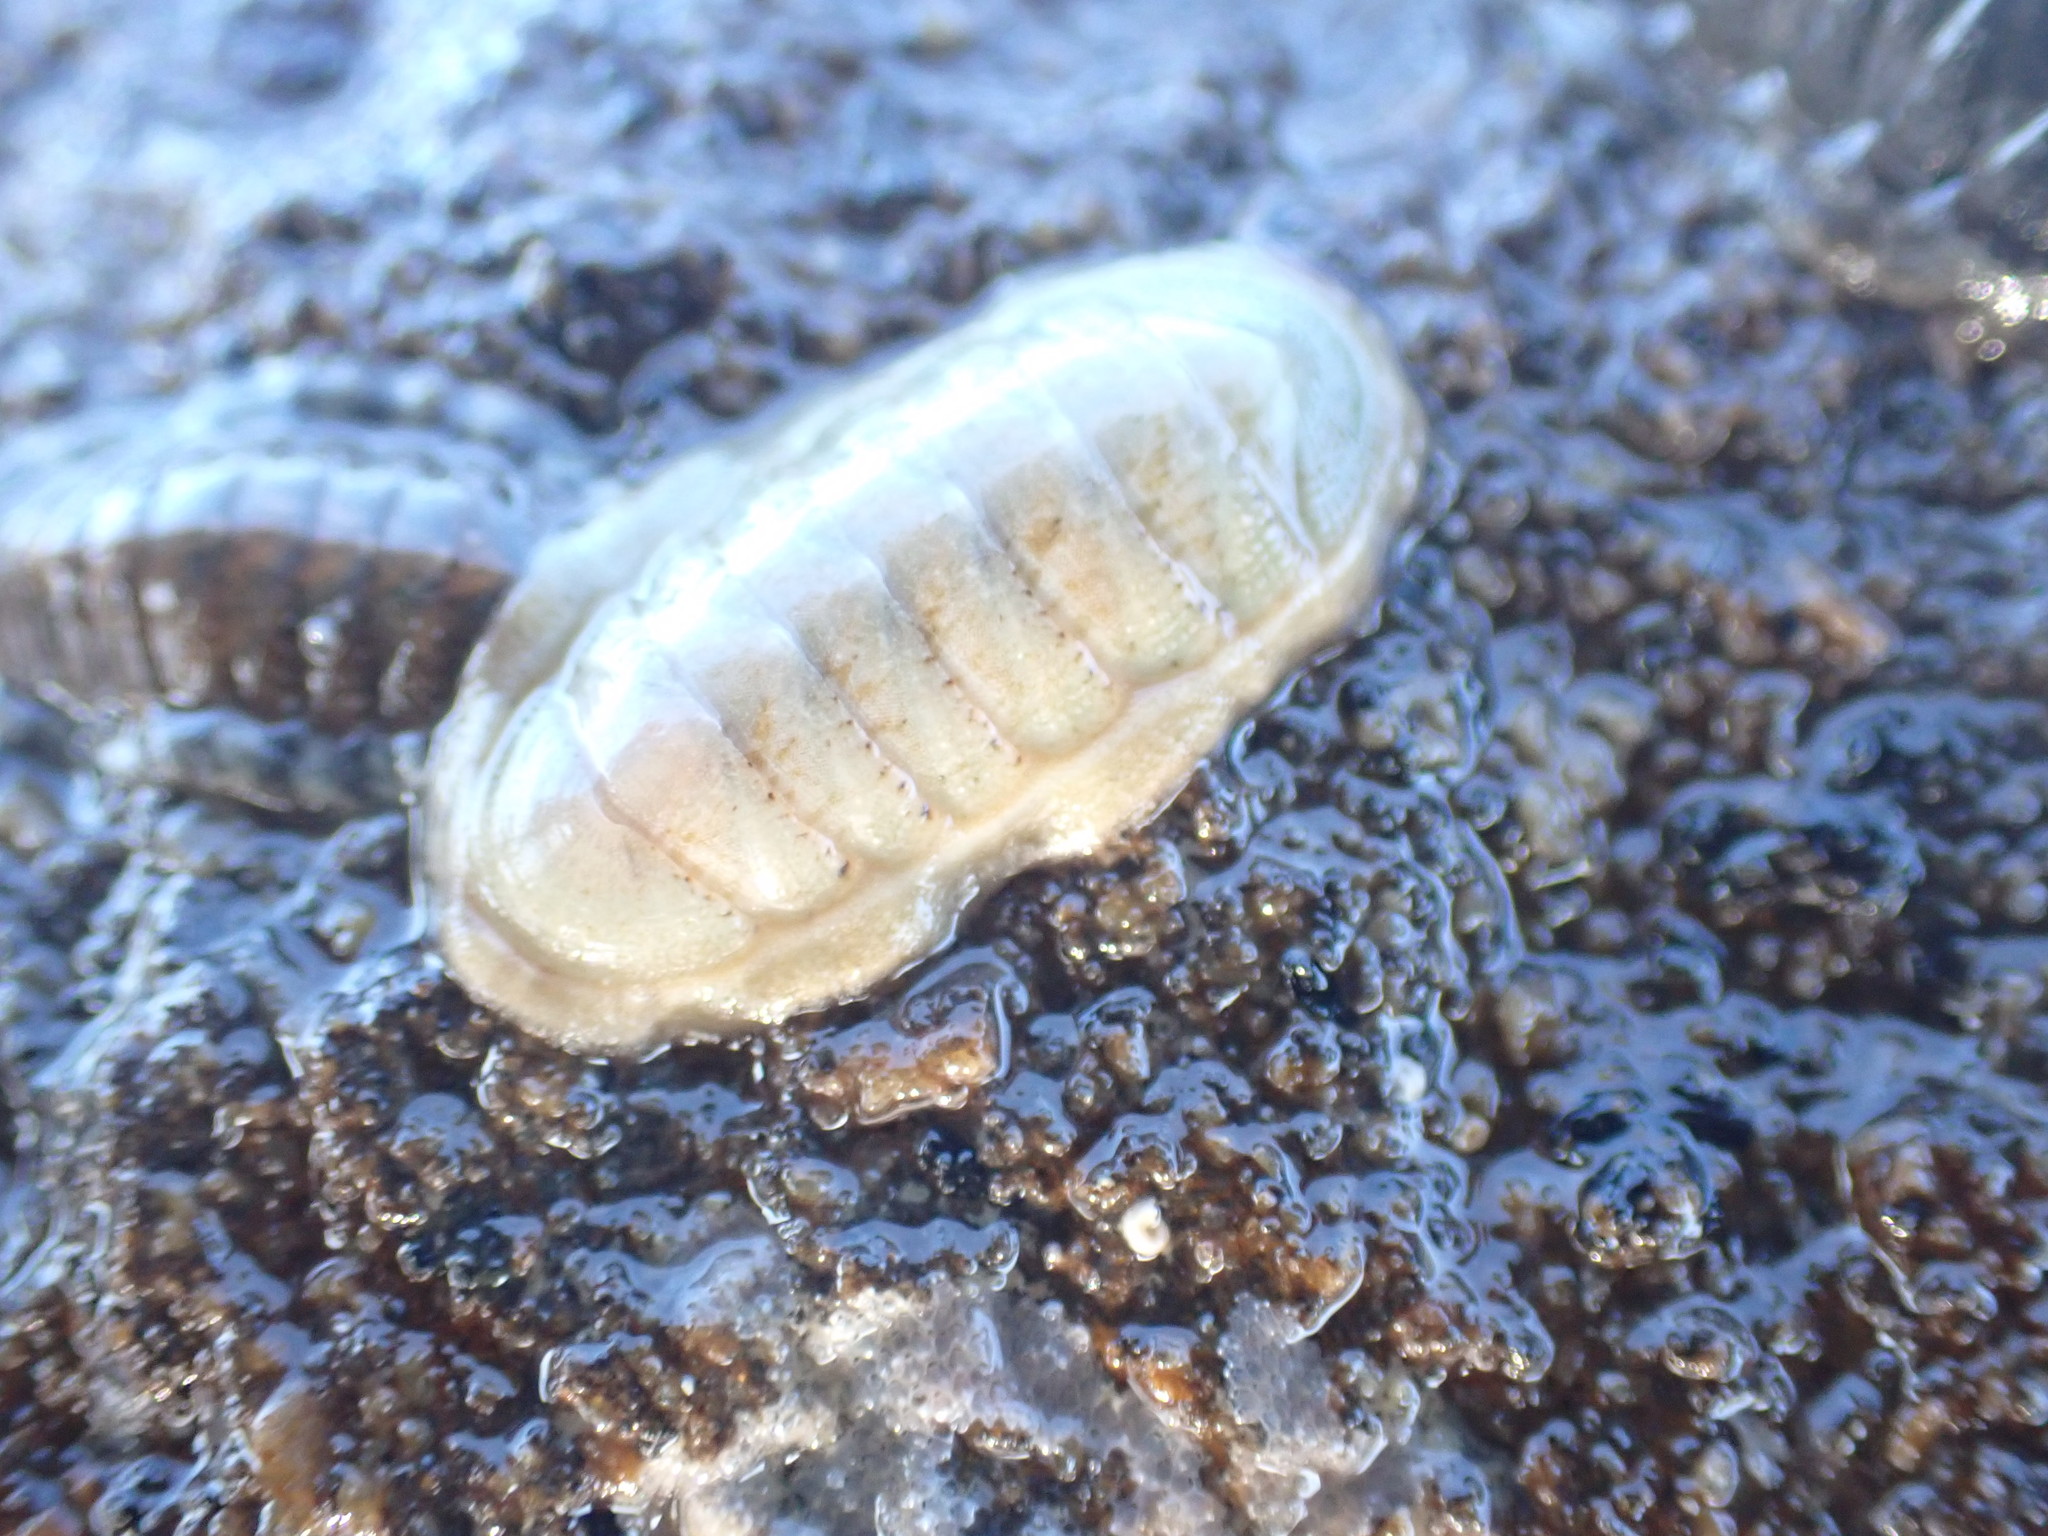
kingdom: Animalia
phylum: Mollusca
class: Polyplacophora
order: Chitonida
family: Ischnochitonidae
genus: Ischnochiton
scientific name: Ischnochiton maorianus
